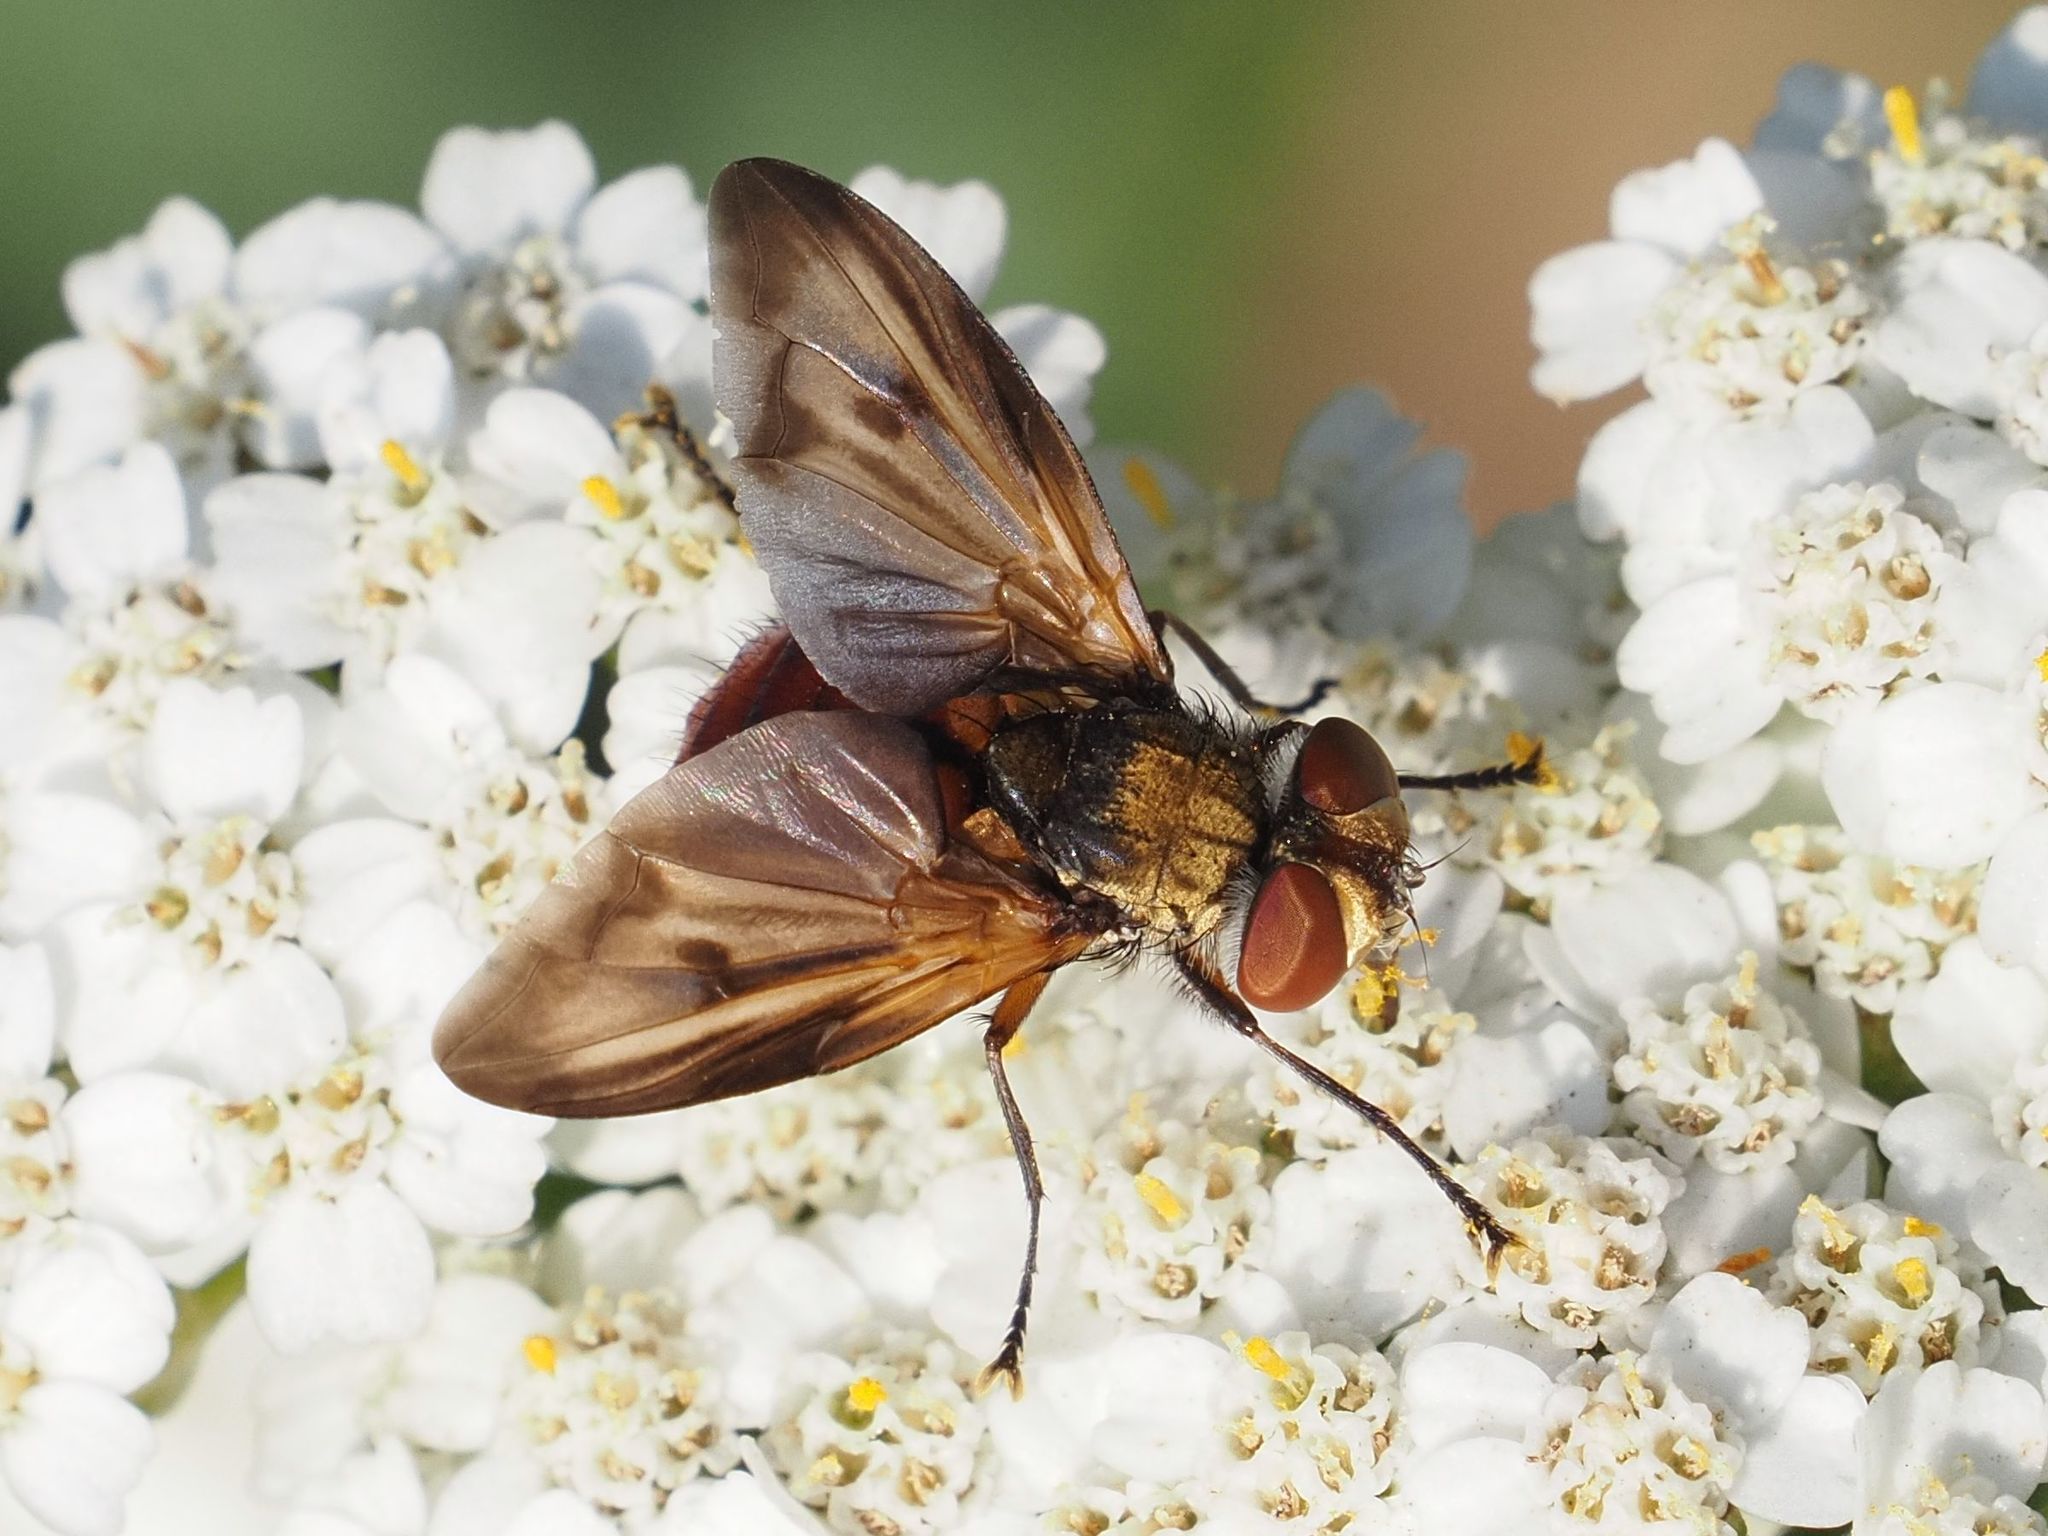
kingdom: Animalia
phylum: Arthropoda
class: Insecta
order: Diptera
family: Tachinidae
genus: Ectophasia
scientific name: Ectophasia crassipennis
